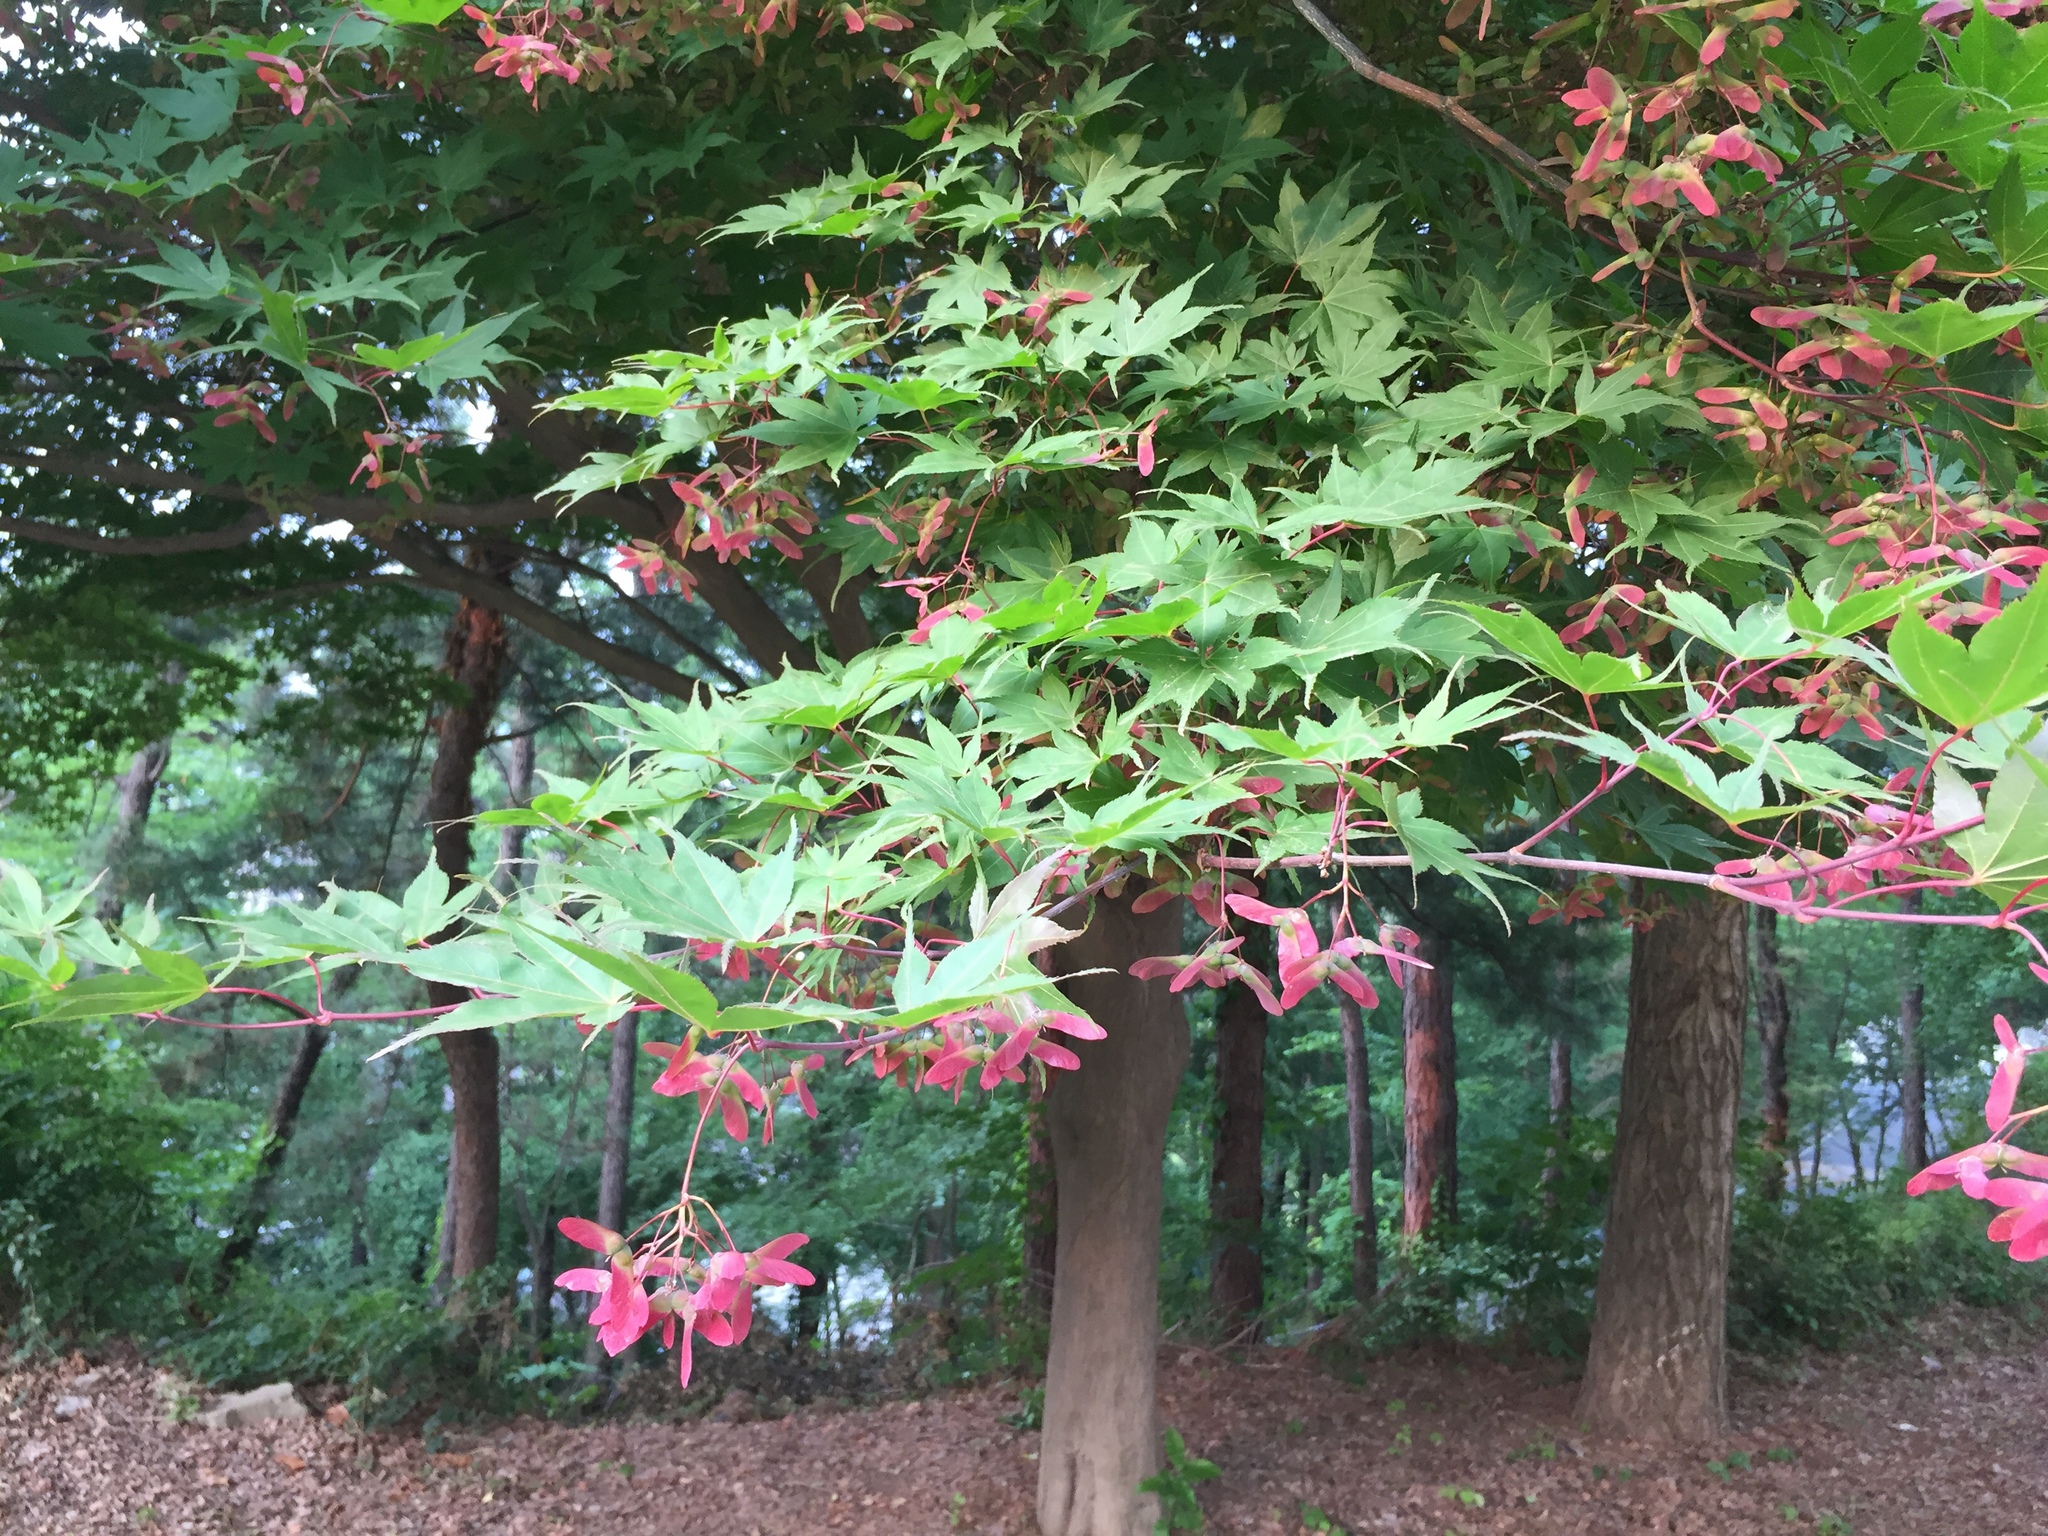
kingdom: Plantae
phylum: Tracheophyta
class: Magnoliopsida
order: Sapindales
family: Sapindaceae
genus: Acer
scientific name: Acer palmatum
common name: Japanese maple
